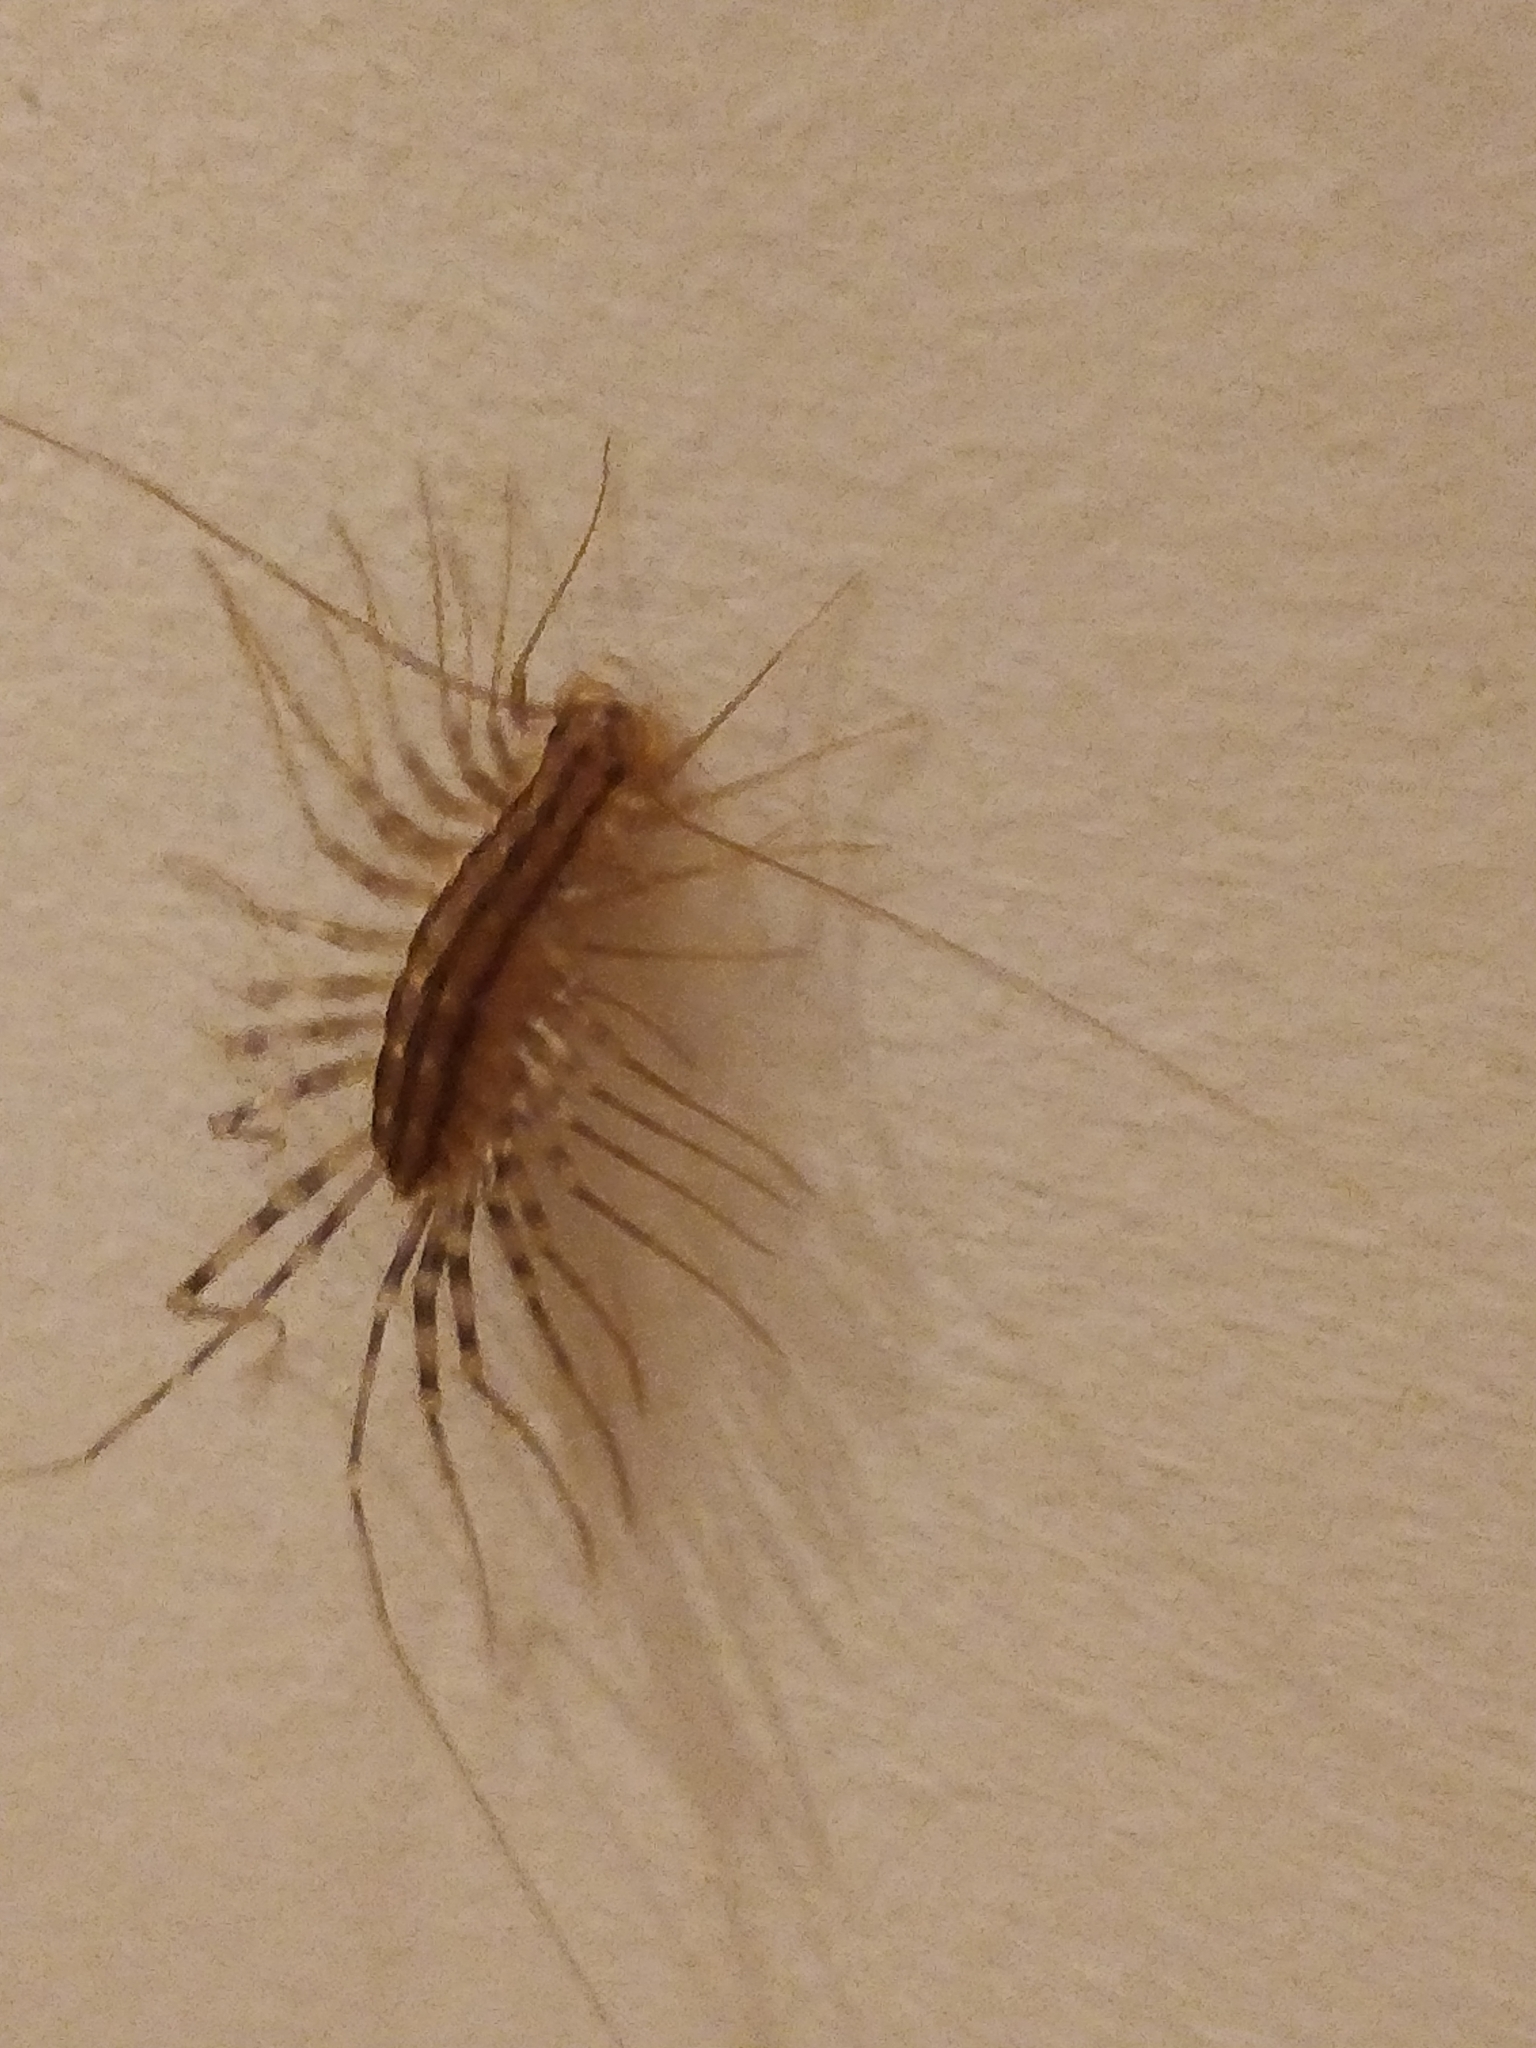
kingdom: Animalia
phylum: Arthropoda
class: Chilopoda
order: Scutigeromorpha
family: Scutigeridae
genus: Scutigera
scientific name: Scutigera coleoptrata
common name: House centipede
